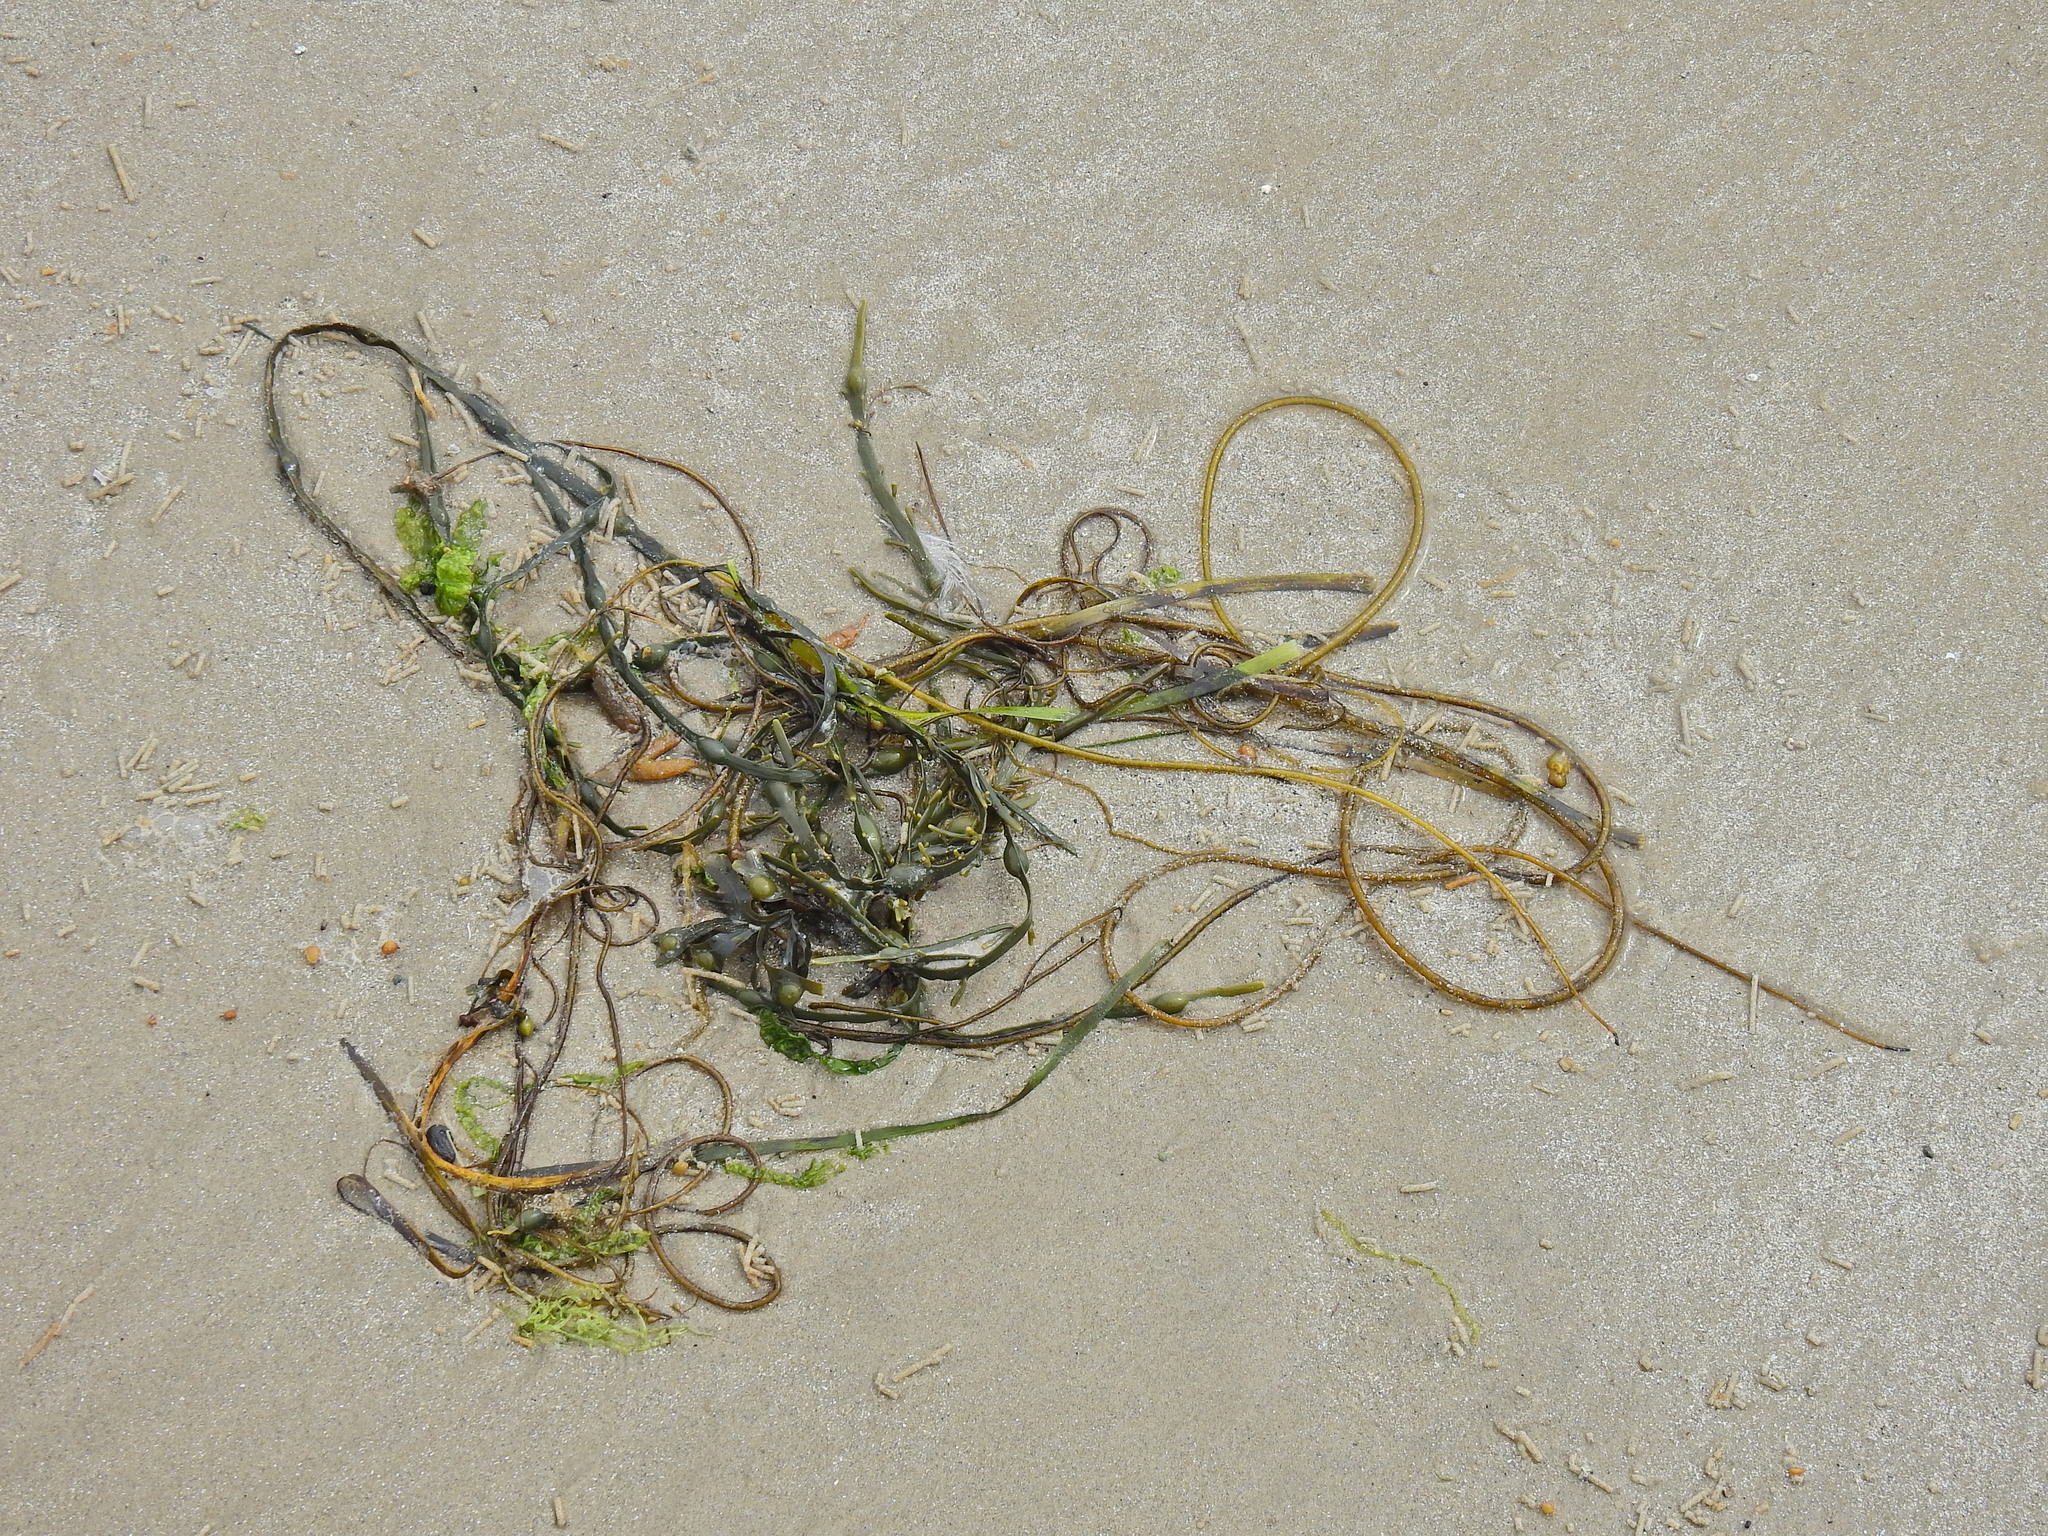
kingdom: Chromista
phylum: Ochrophyta
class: Phaeophyceae
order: Fucales
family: Fucaceae
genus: Ascophyllum
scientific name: Ascophyllum nodosum
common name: Knotted wrack
